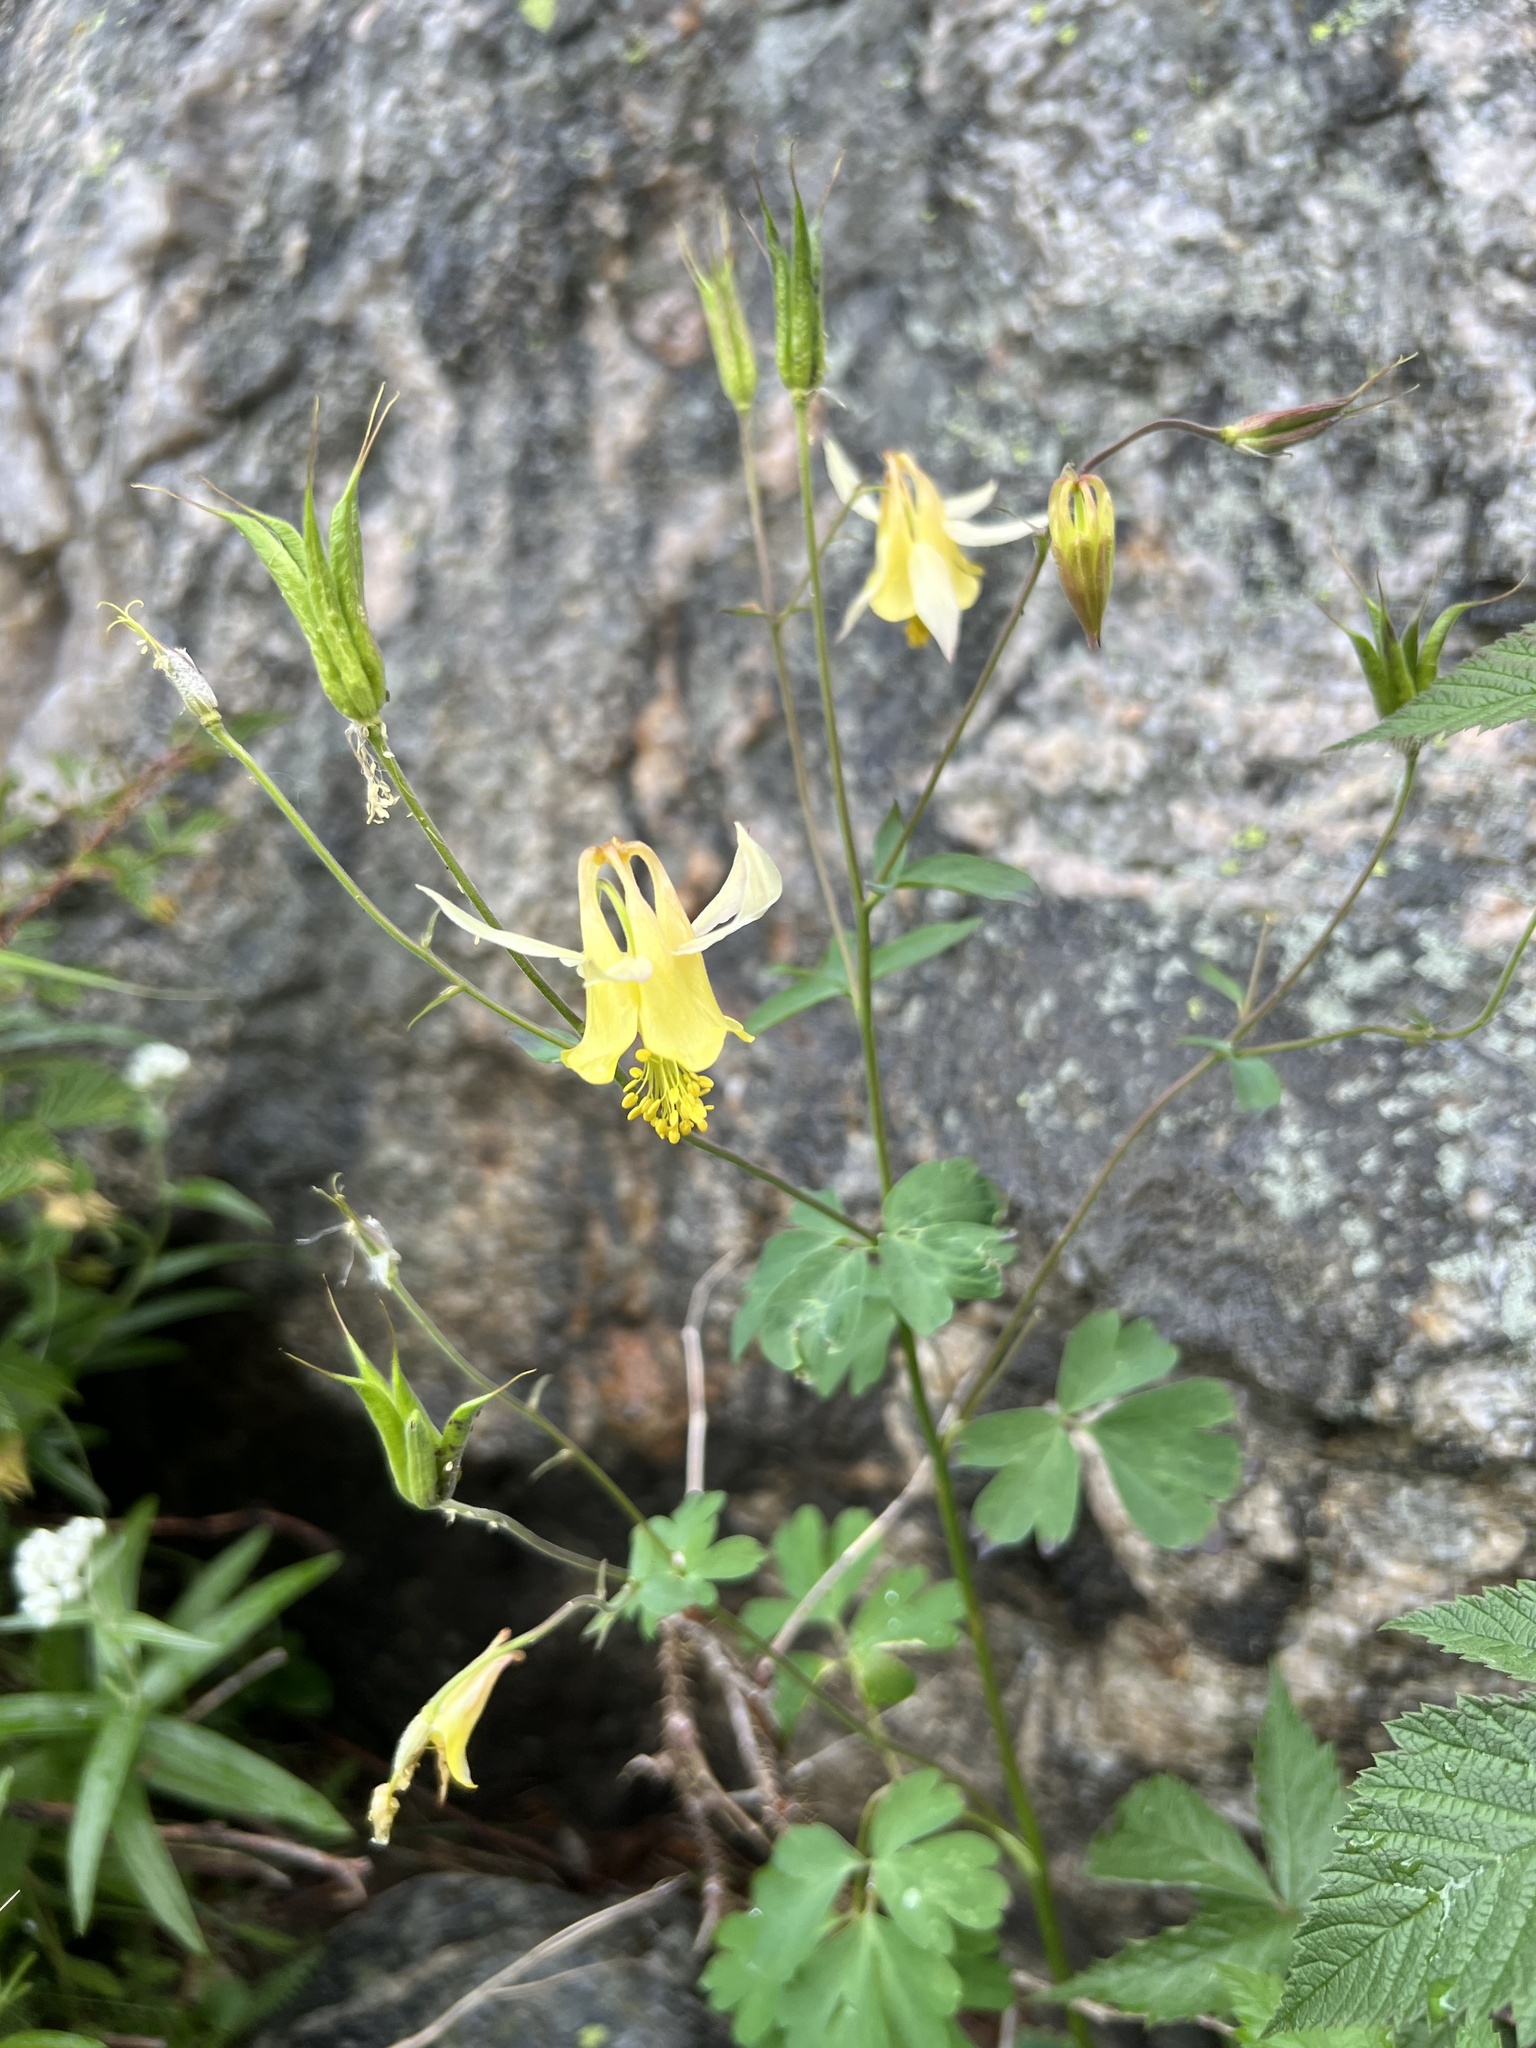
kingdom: Plantae
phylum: Tracheophyta
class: Magnoliopsida
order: Ranunculales
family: Ranunculaceae
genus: Aquilegia
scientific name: Aquilegia flavescens
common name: Yellow columbine
